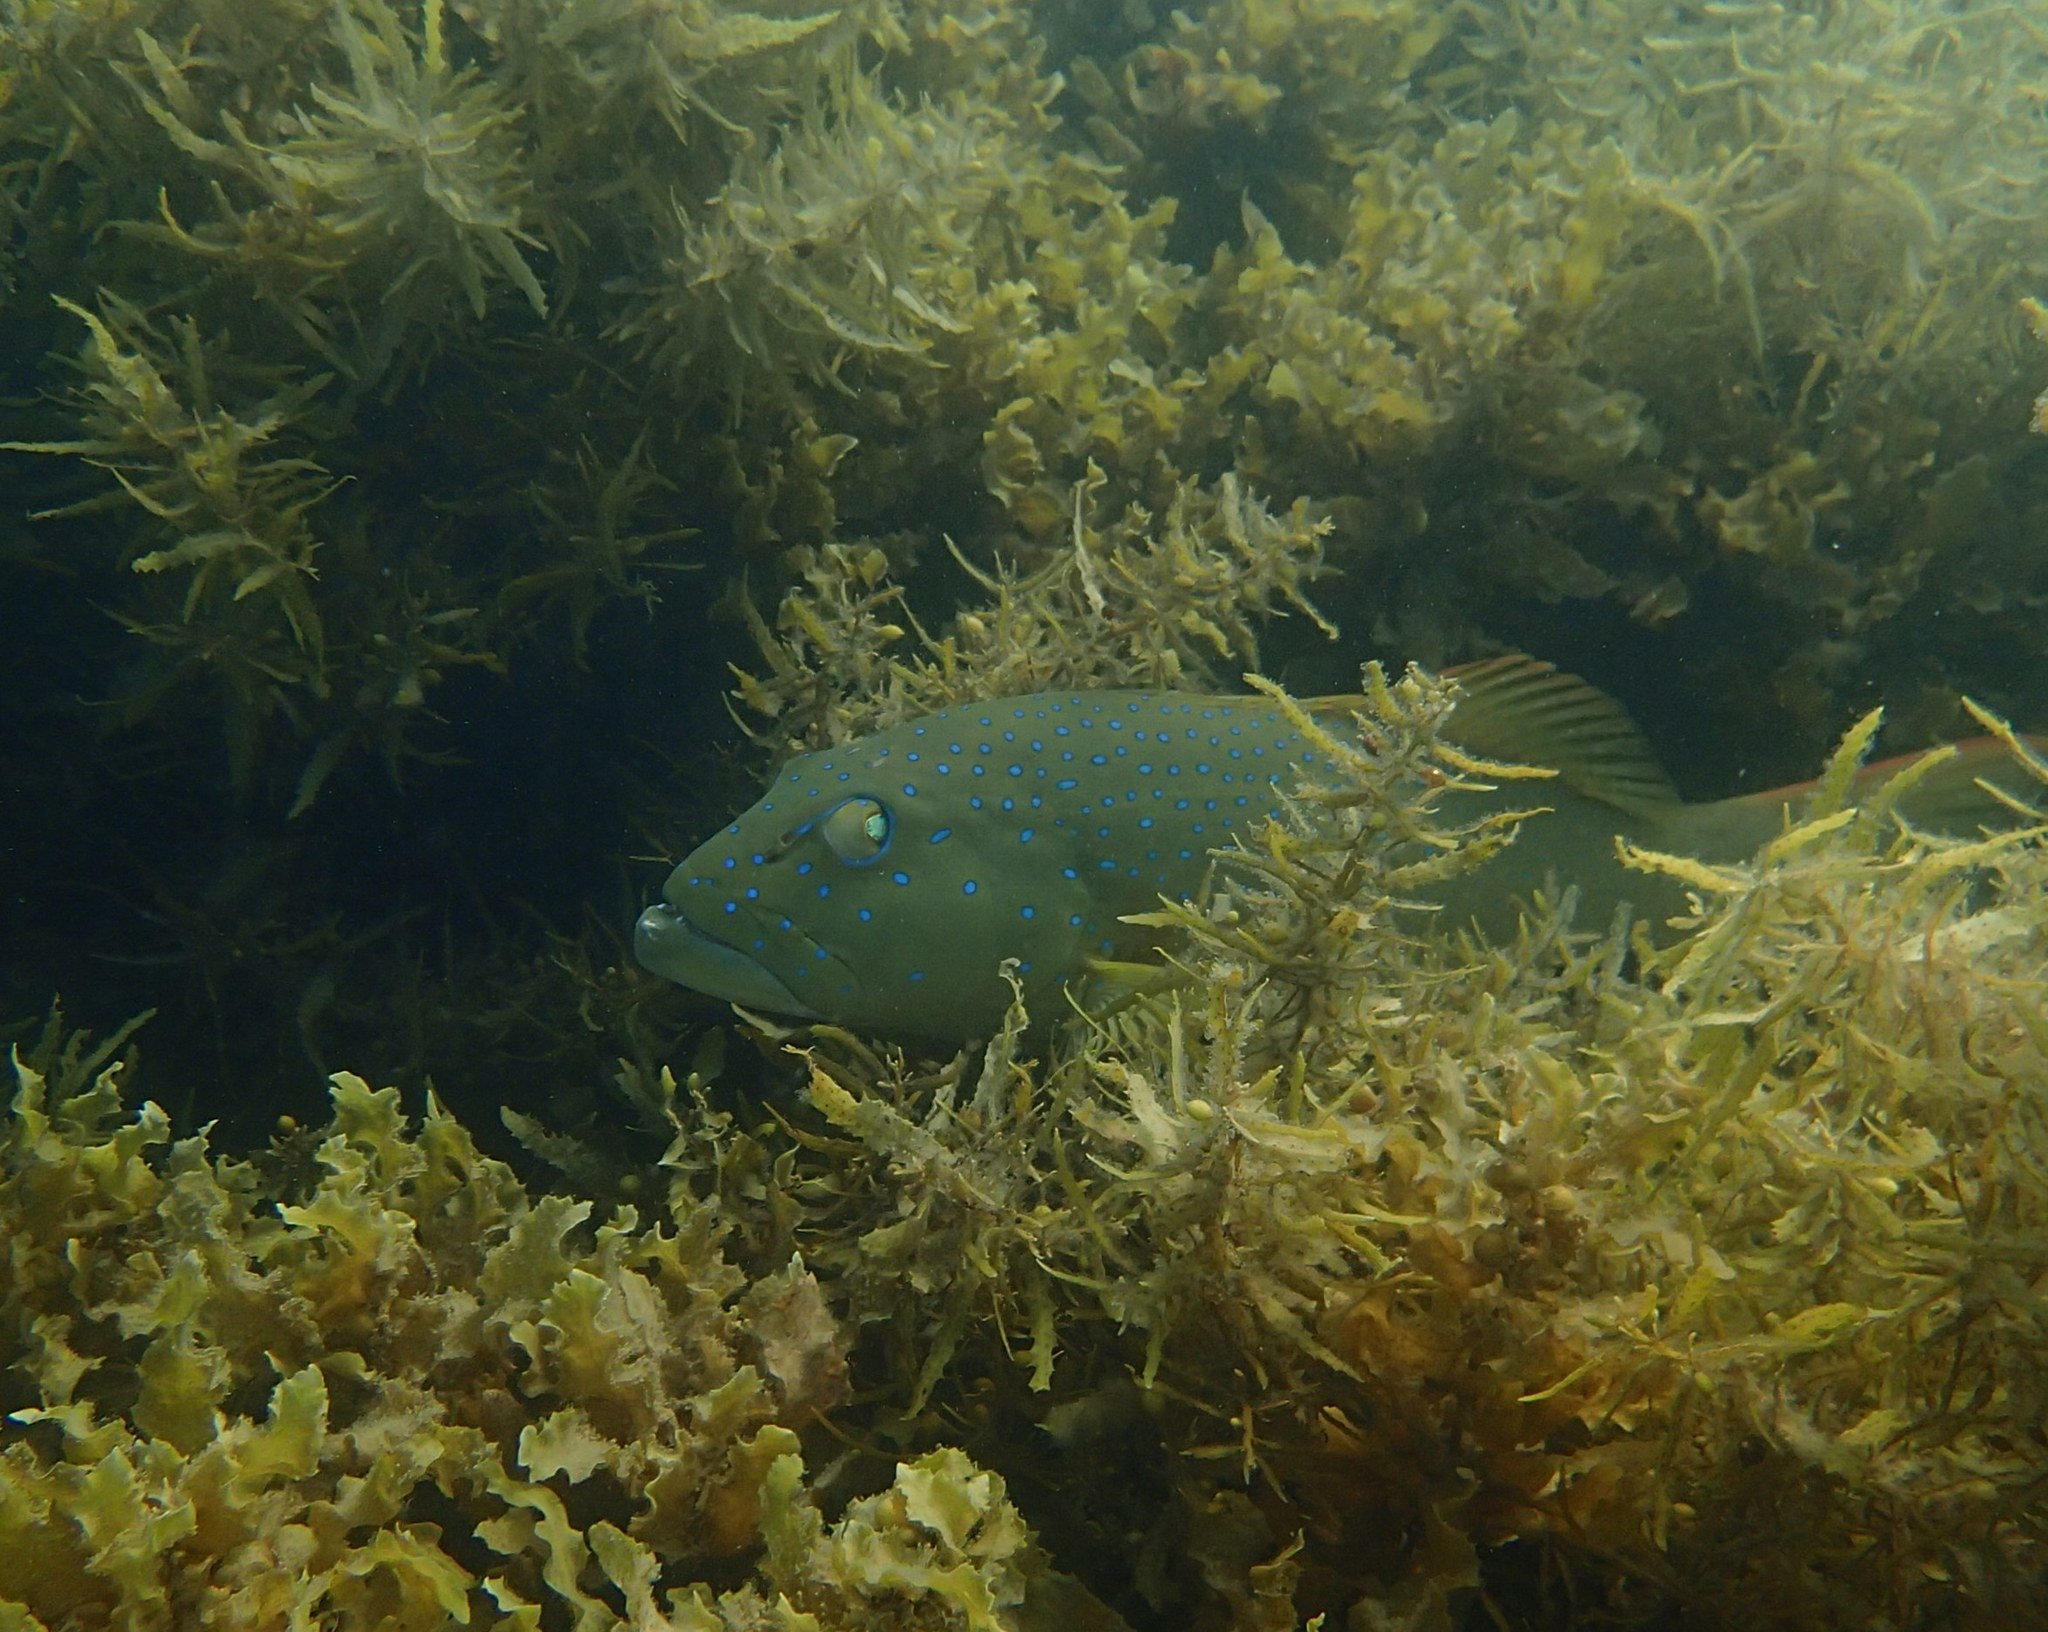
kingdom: Animalia
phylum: Chordata
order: Perciformes
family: Serranidae
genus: Plectropomus
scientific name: Plectropomus maculatus
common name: Spotted coralgrouper
